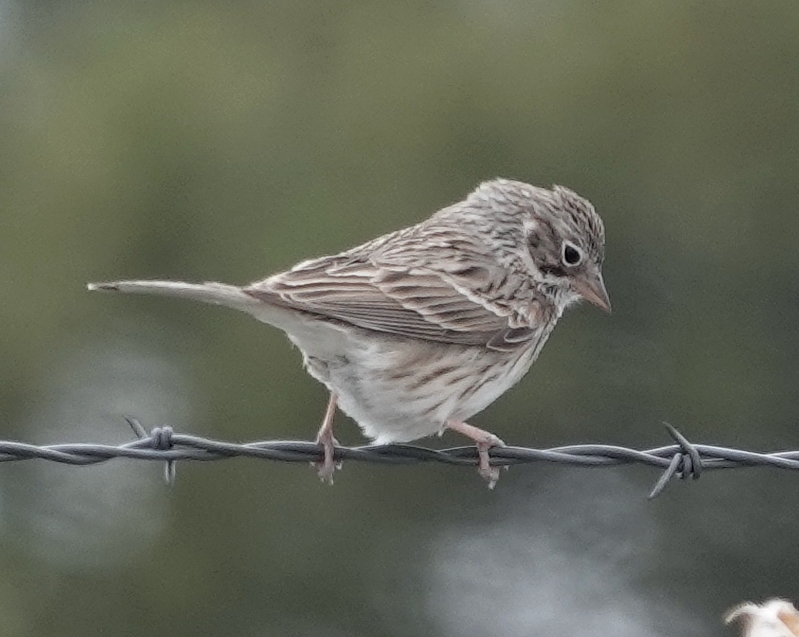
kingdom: Animalia
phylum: Chordata
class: Aves
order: Passeriformes
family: Passerellidae
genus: Pooecetes
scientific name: Pooecetes gramineus
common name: Vesper sparrow
